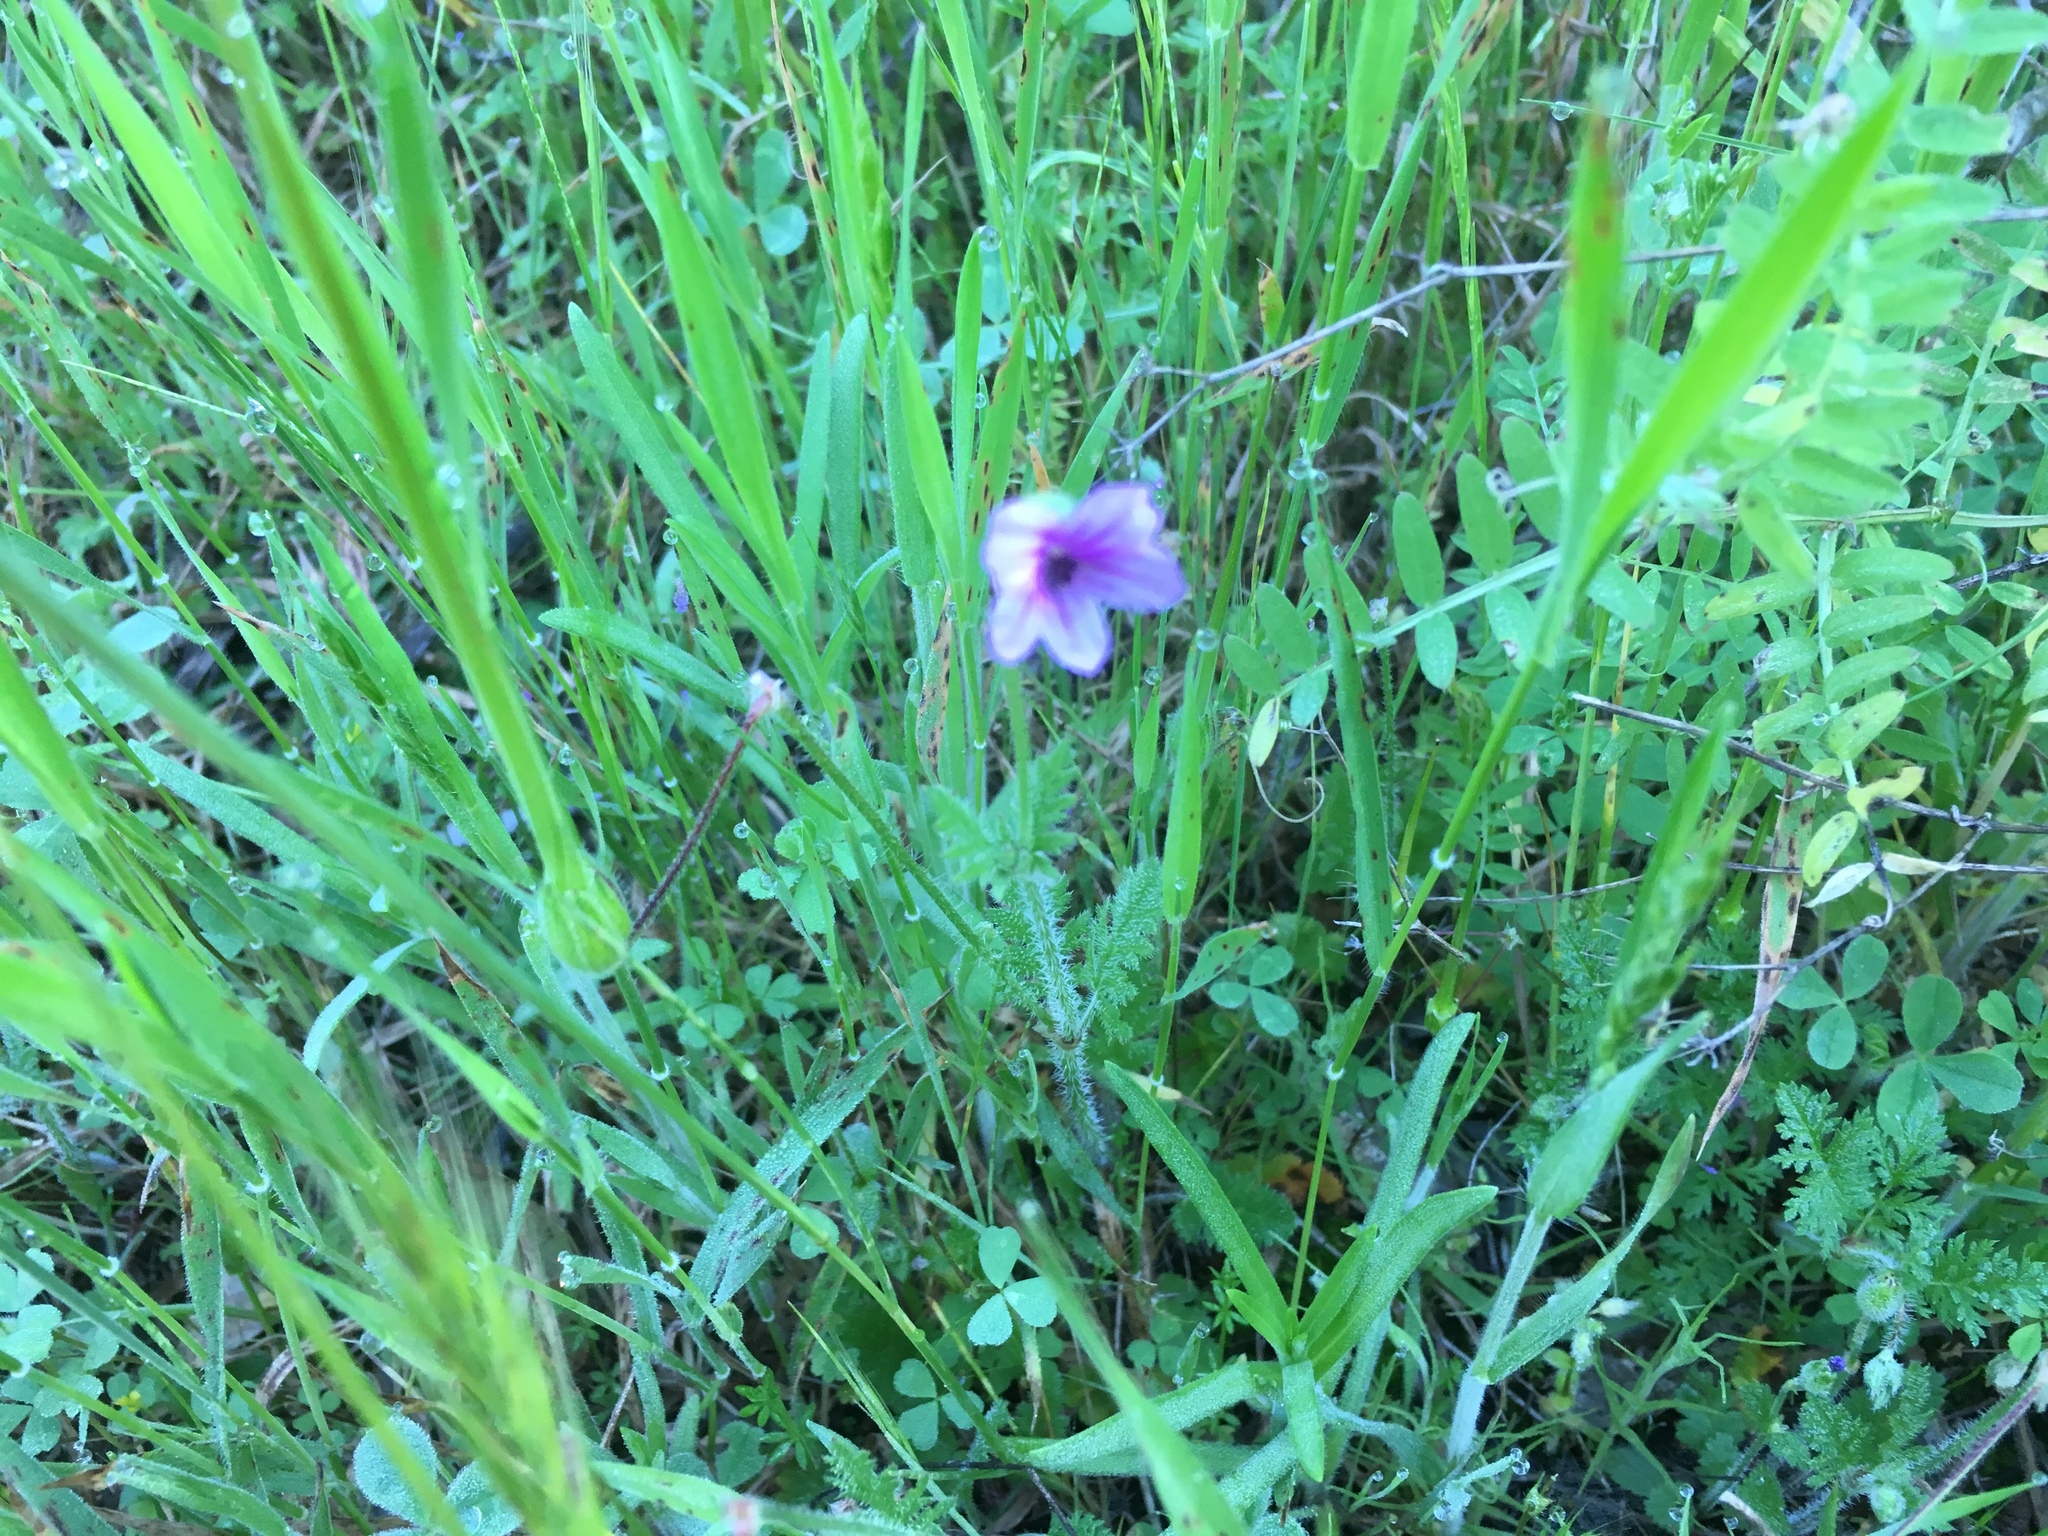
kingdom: Plantae
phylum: Tracheophyta
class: Magnoliopsida
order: Geraniales
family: Geraniaceae
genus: Erodium
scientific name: Erodium botrys
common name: Mediterranean stork's-bill
